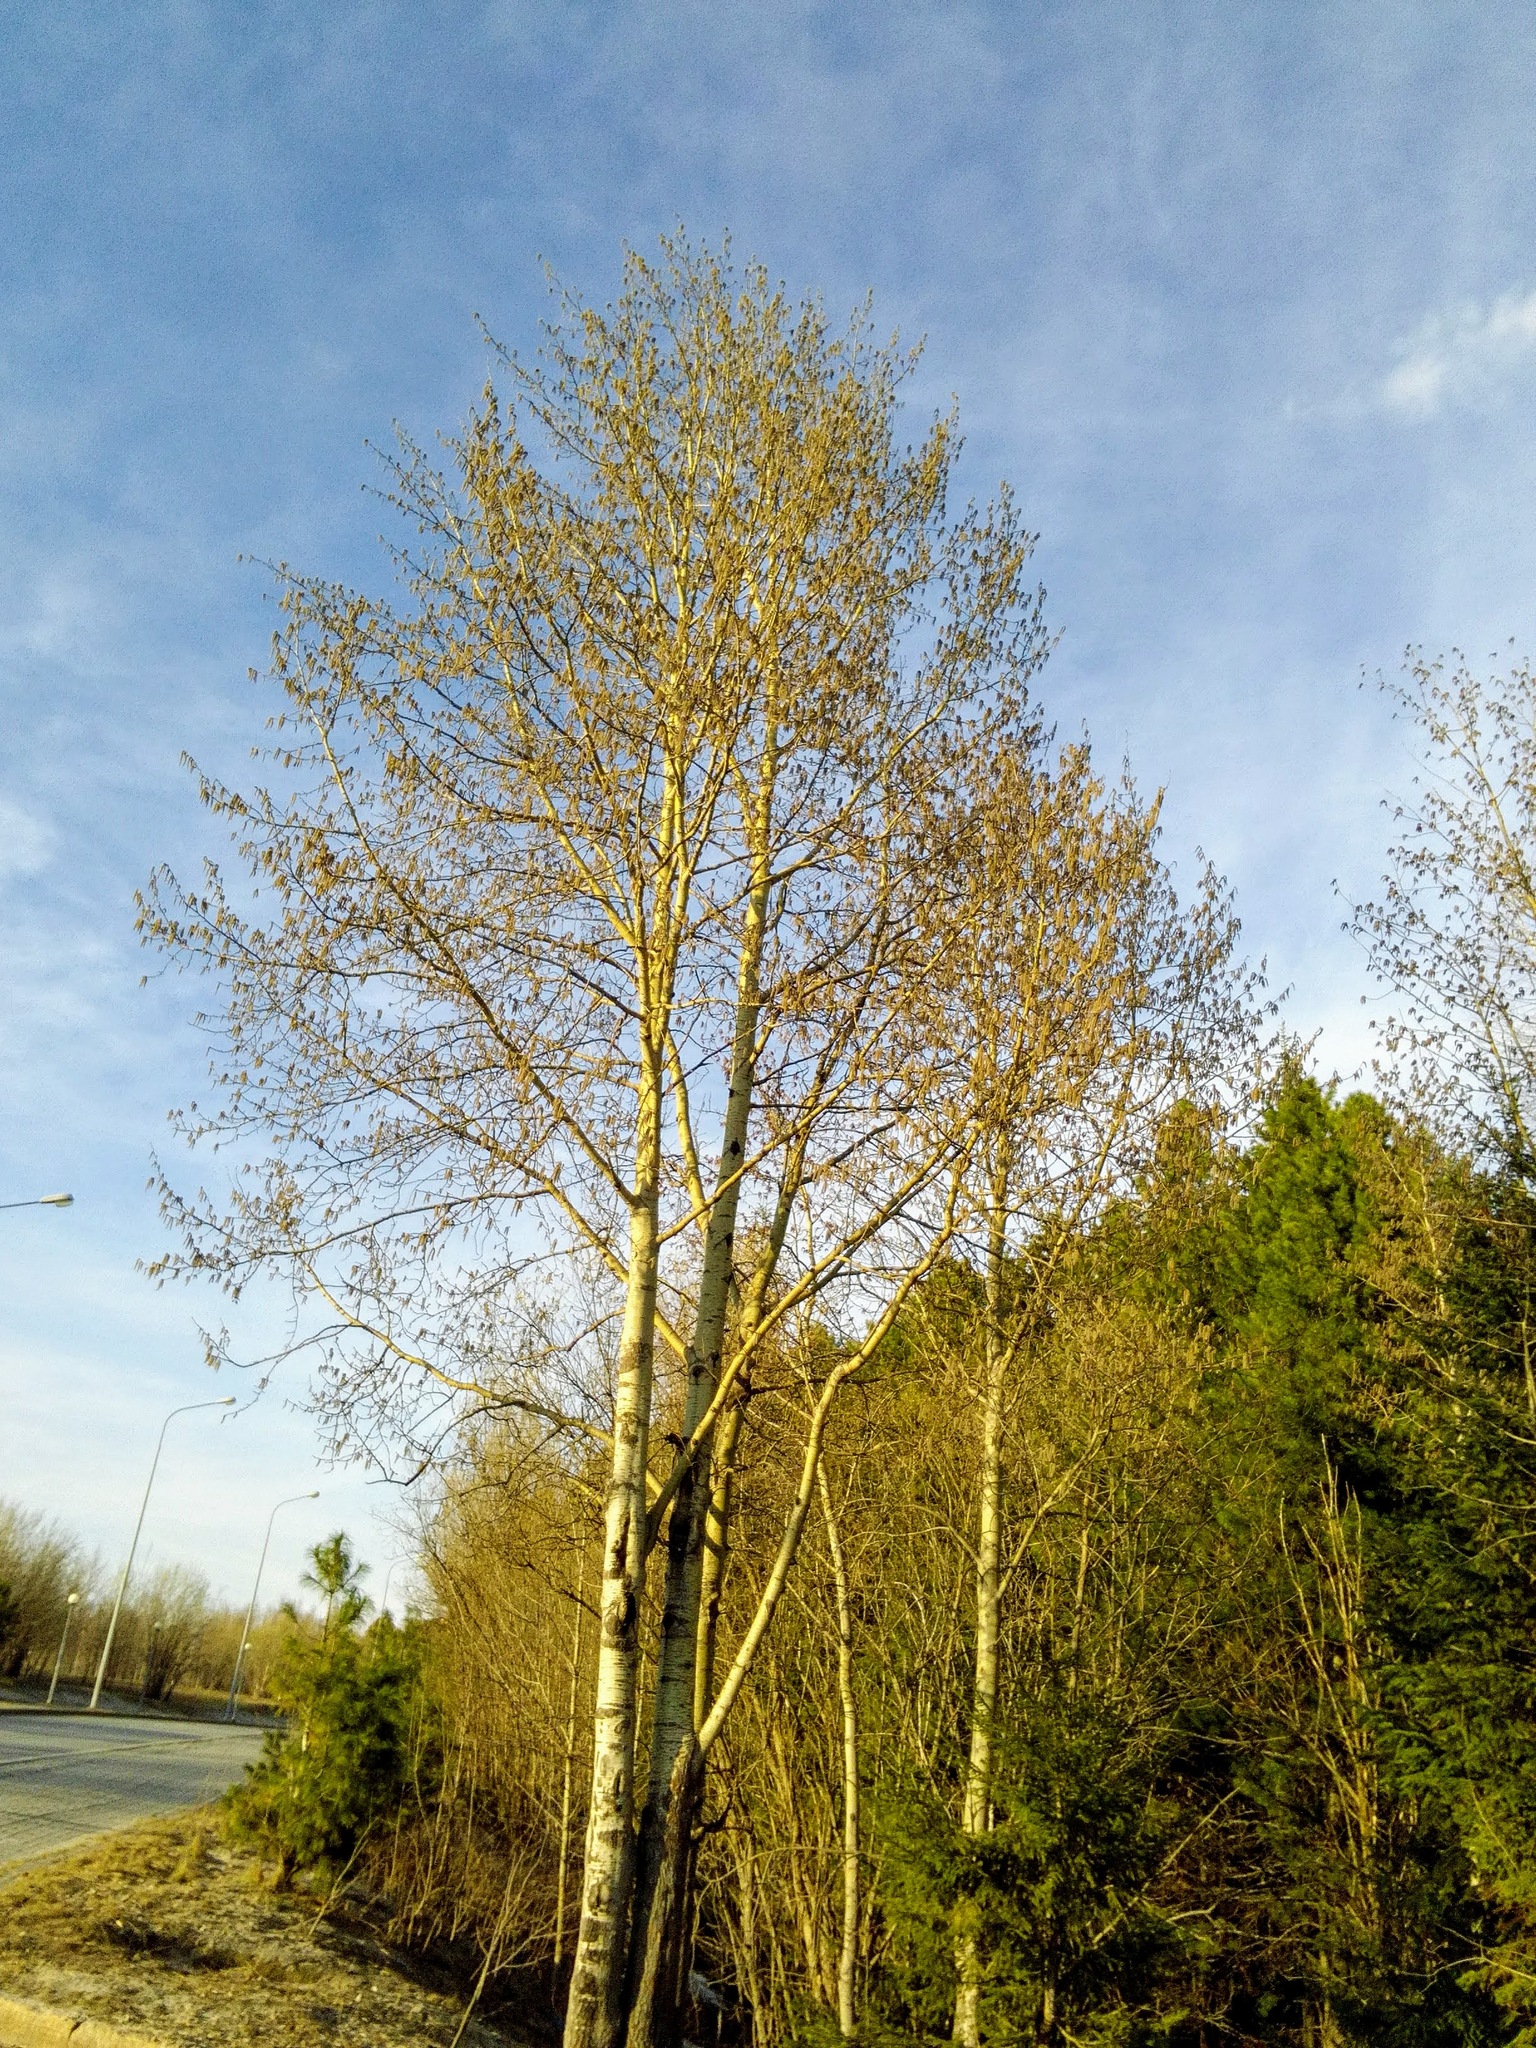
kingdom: Plantae
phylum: Tracheophyta
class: Magnoliopsida
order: Malpighiales
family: Salicaceae
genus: Populus
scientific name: Populus tremula
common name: European aspen
